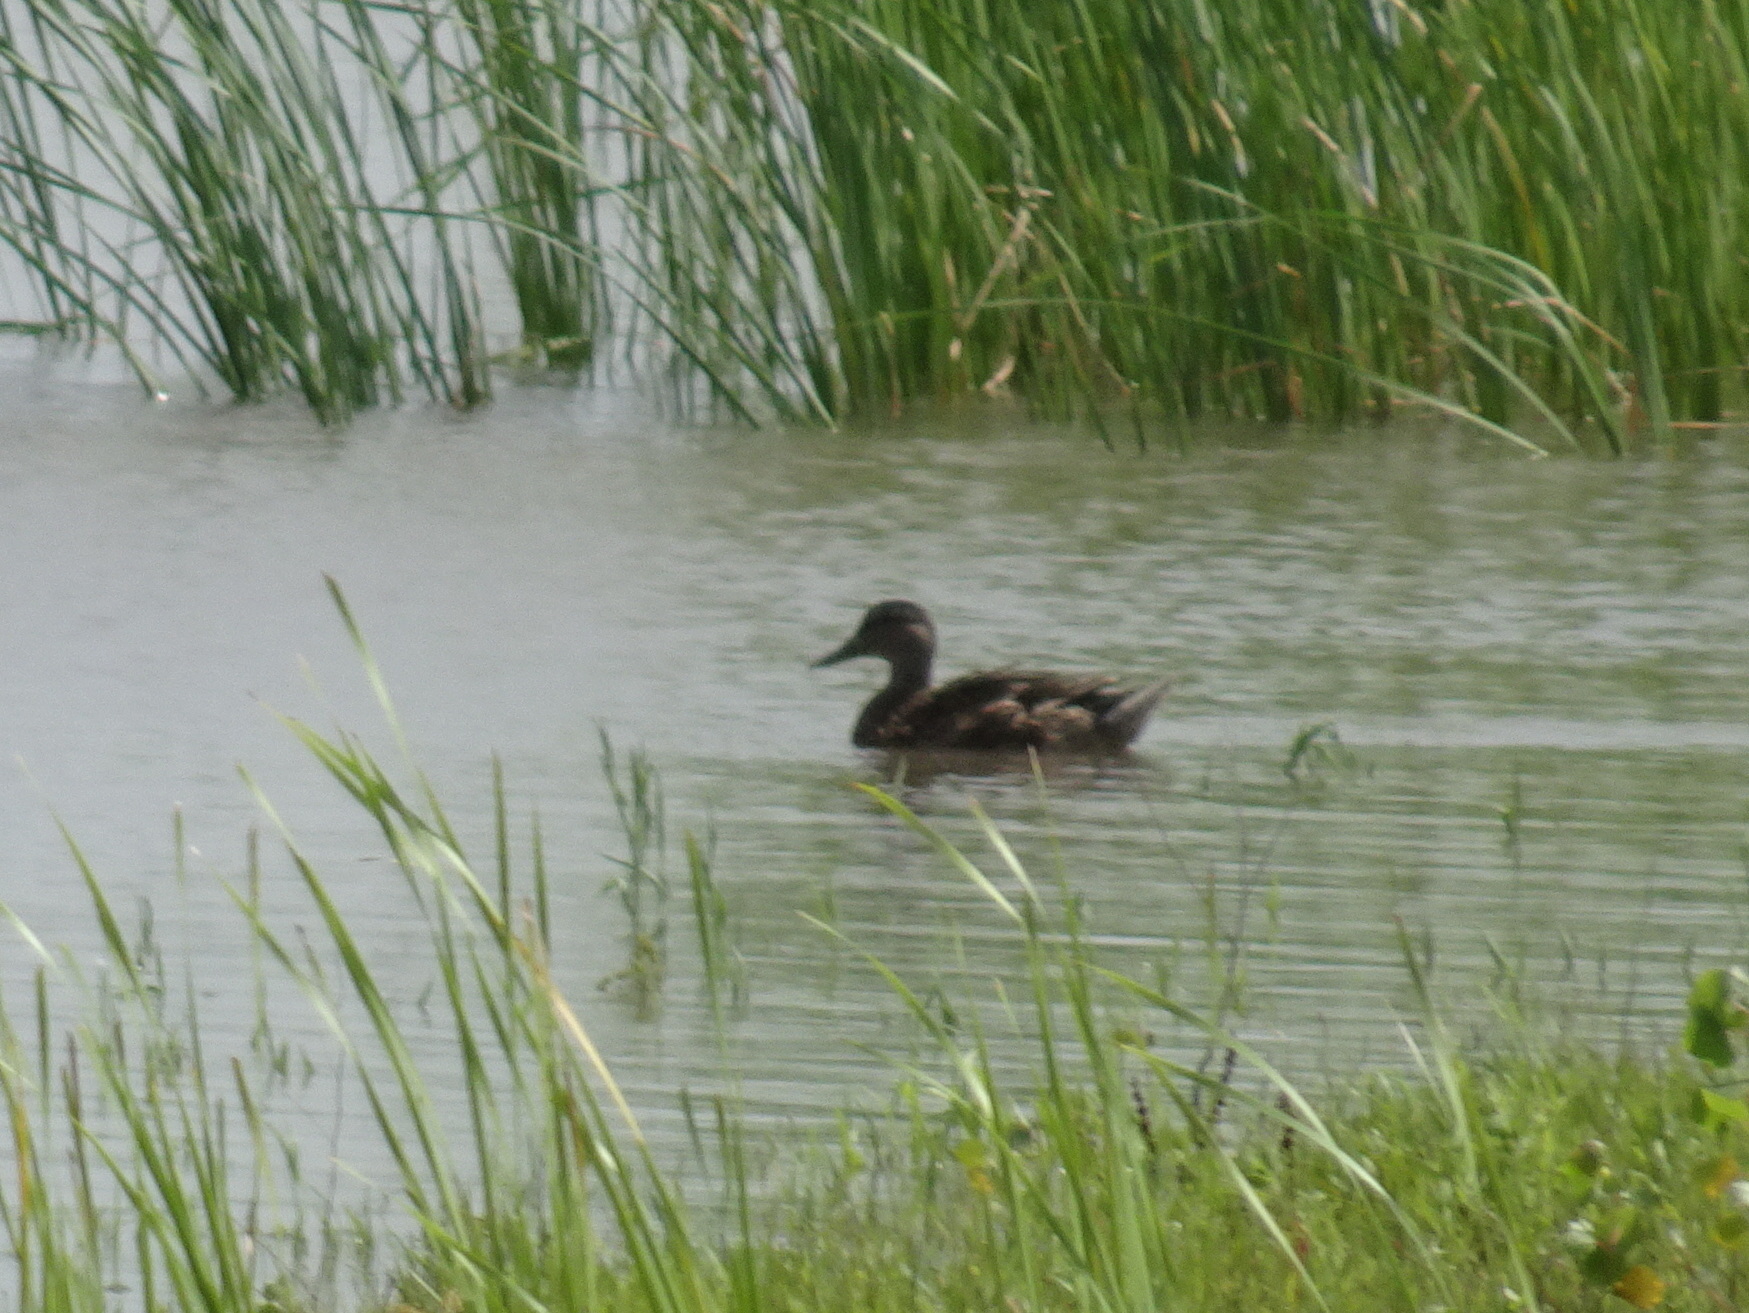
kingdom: Animalia
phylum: Chordata
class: Aves
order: Anseriformes
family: Anatidae
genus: Anas
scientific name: Anas platyrhynchos
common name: Mallard
